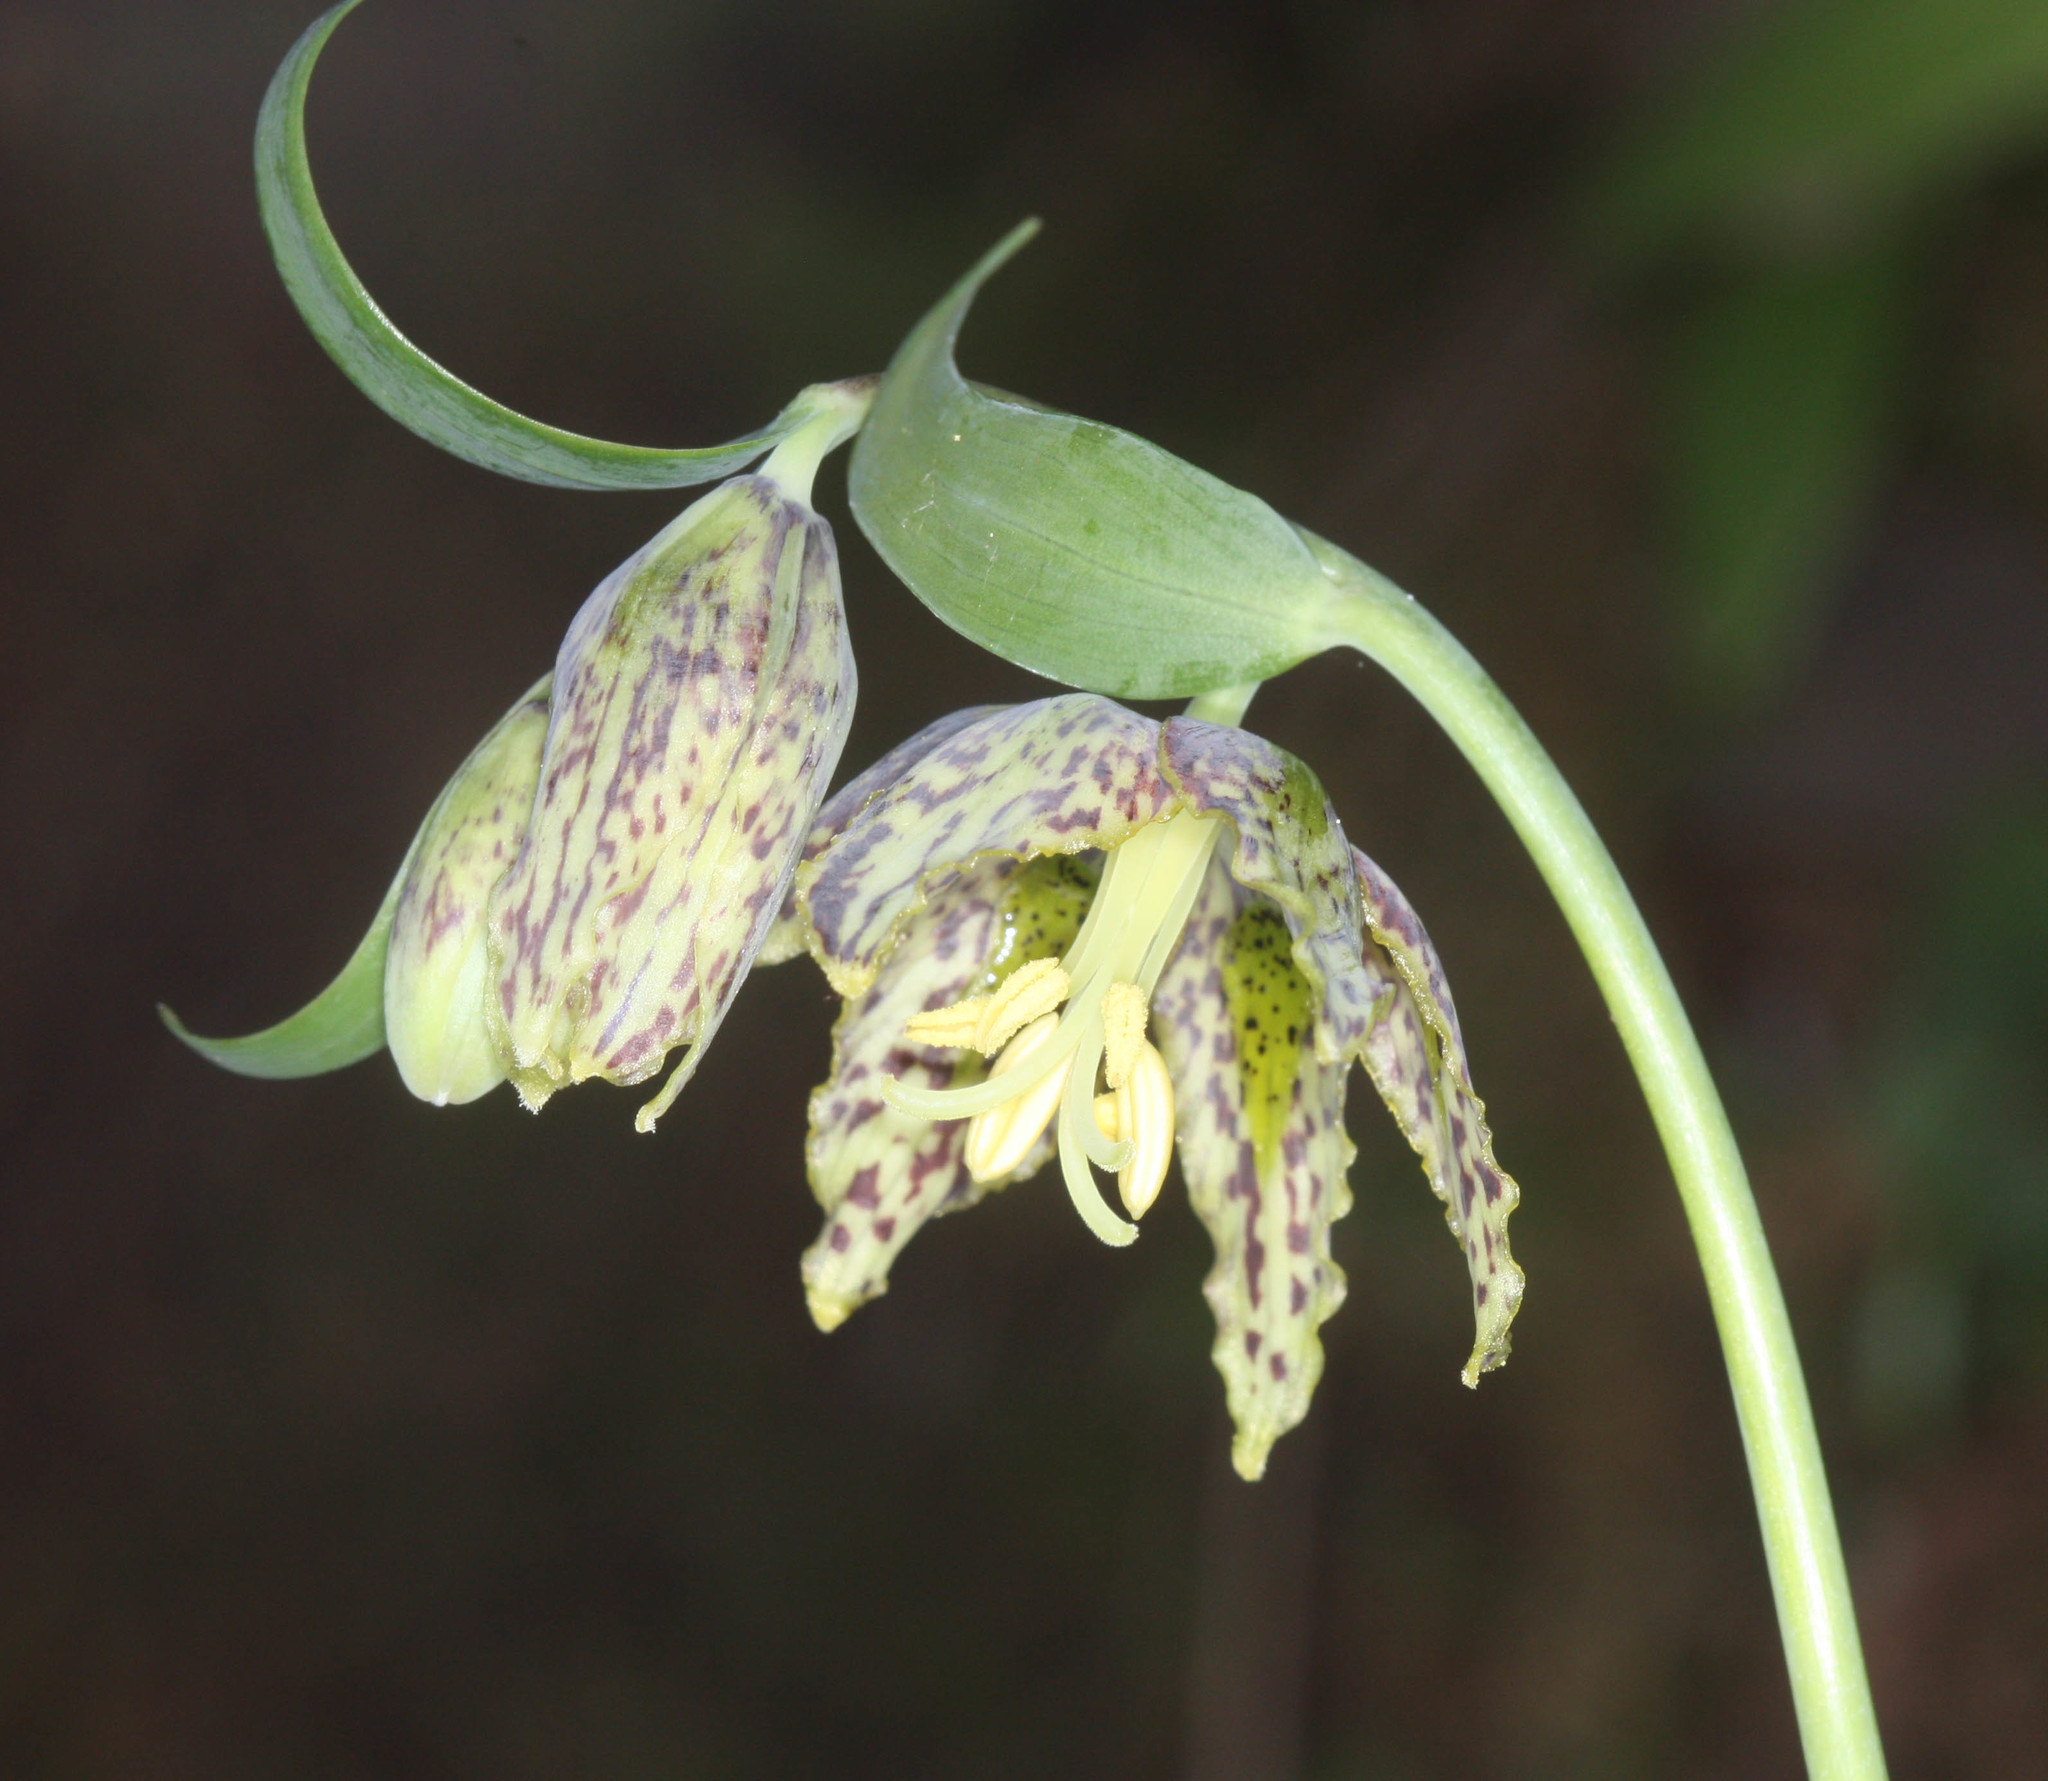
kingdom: Plantae
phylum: Tracheophyta
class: Liliopsida
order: Liliales
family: Liliaceae
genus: Fritillaria
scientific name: Fritillaria affinis
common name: Ojai fritillary
